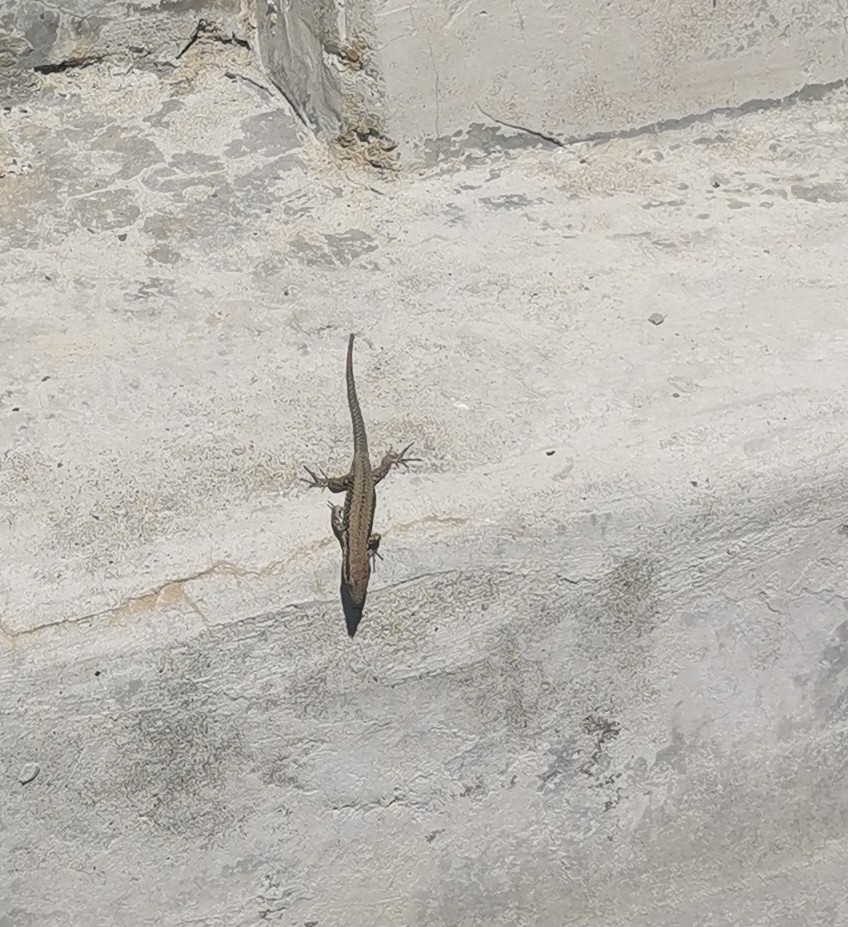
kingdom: Animalia
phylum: Chordata
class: Squamata
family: Lacertidae
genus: Podarcis
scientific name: Podarcis muralis
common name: Common wall lizard
